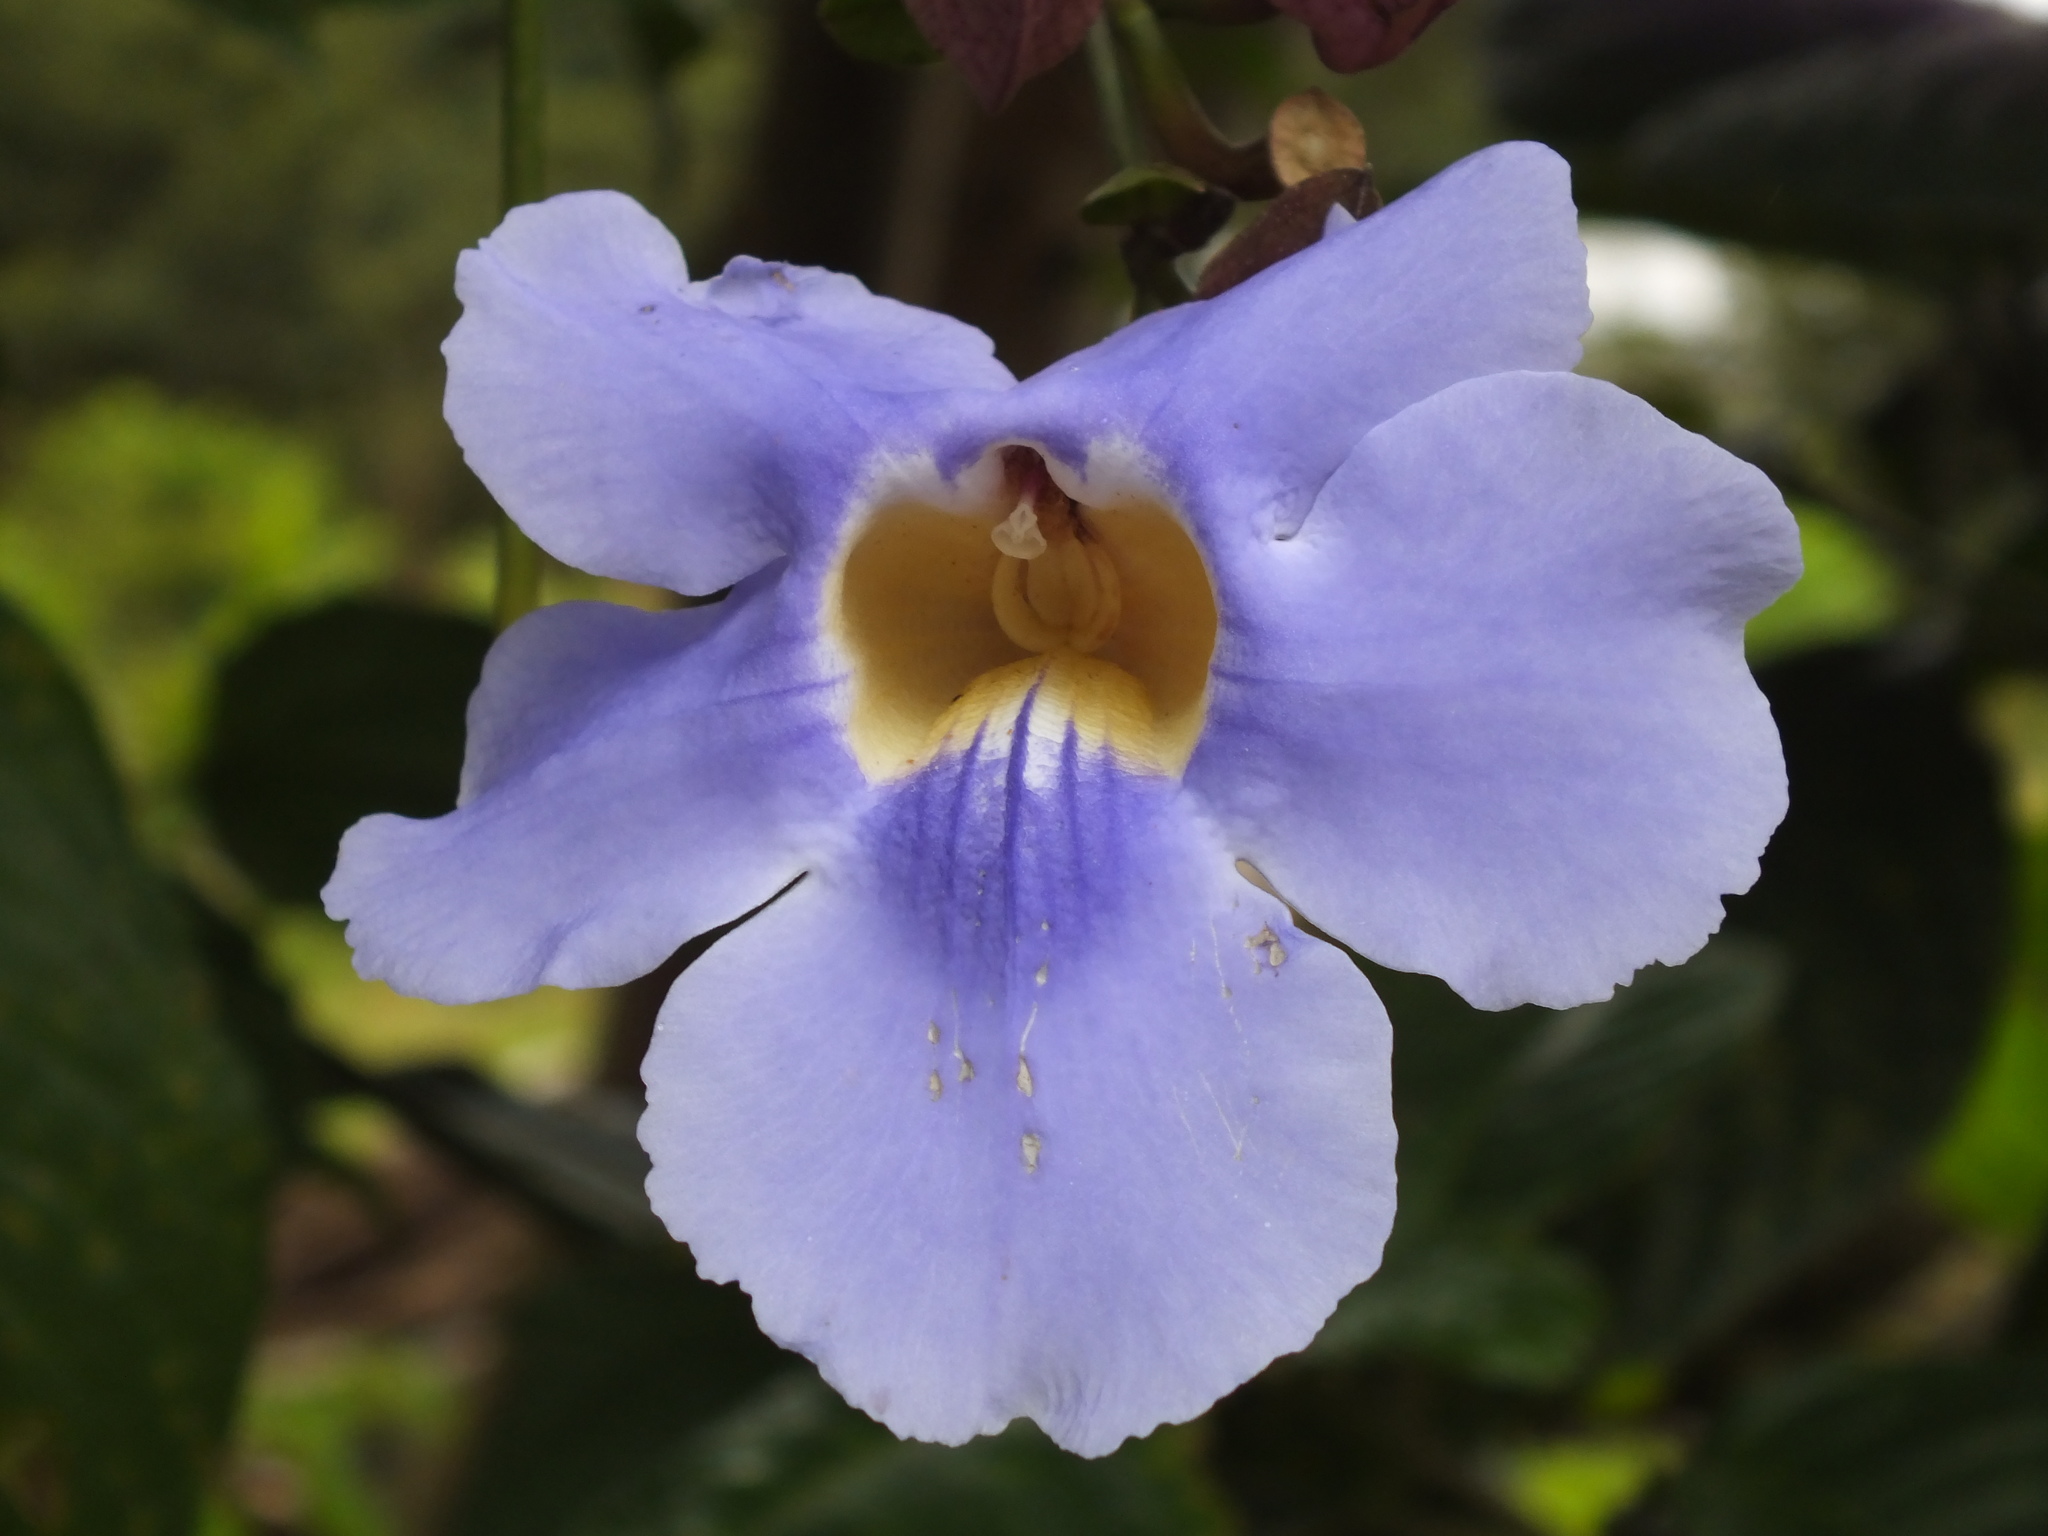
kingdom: Plantae
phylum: Tracheophyta
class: Magnoliopsida
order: Lamiales
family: Acanthaceae
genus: Thunbergia
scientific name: Thunbergia grandiflora
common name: Bengal trumpet
